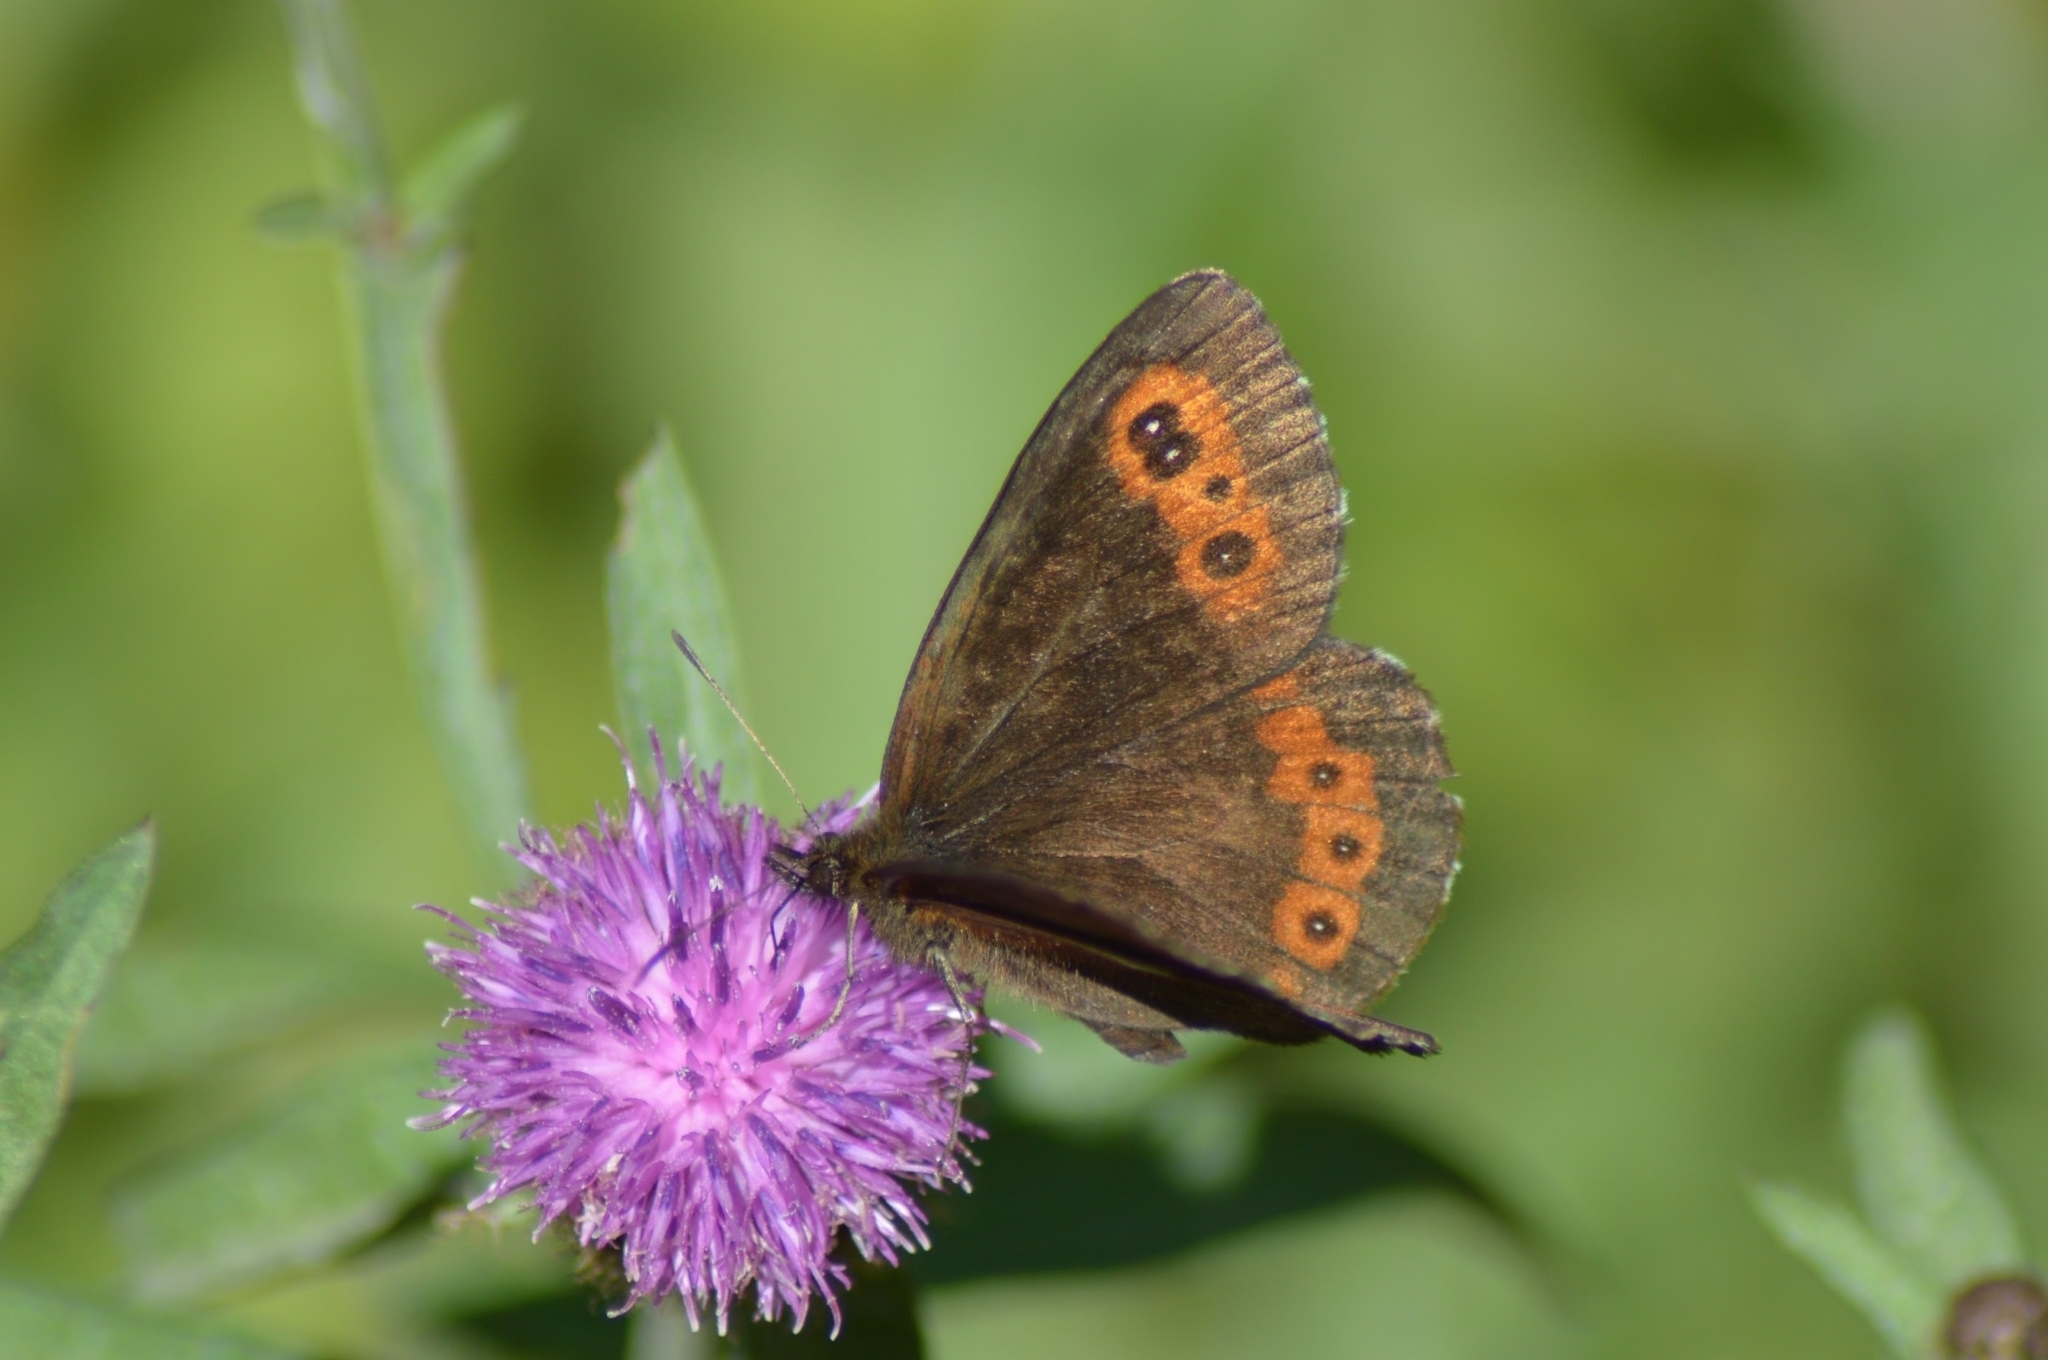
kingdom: Animalia
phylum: Arthropoda
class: Insecta
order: Lepidoptera
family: Nymphalidae
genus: Erebia
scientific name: Erebia ligea
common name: Arran brown
